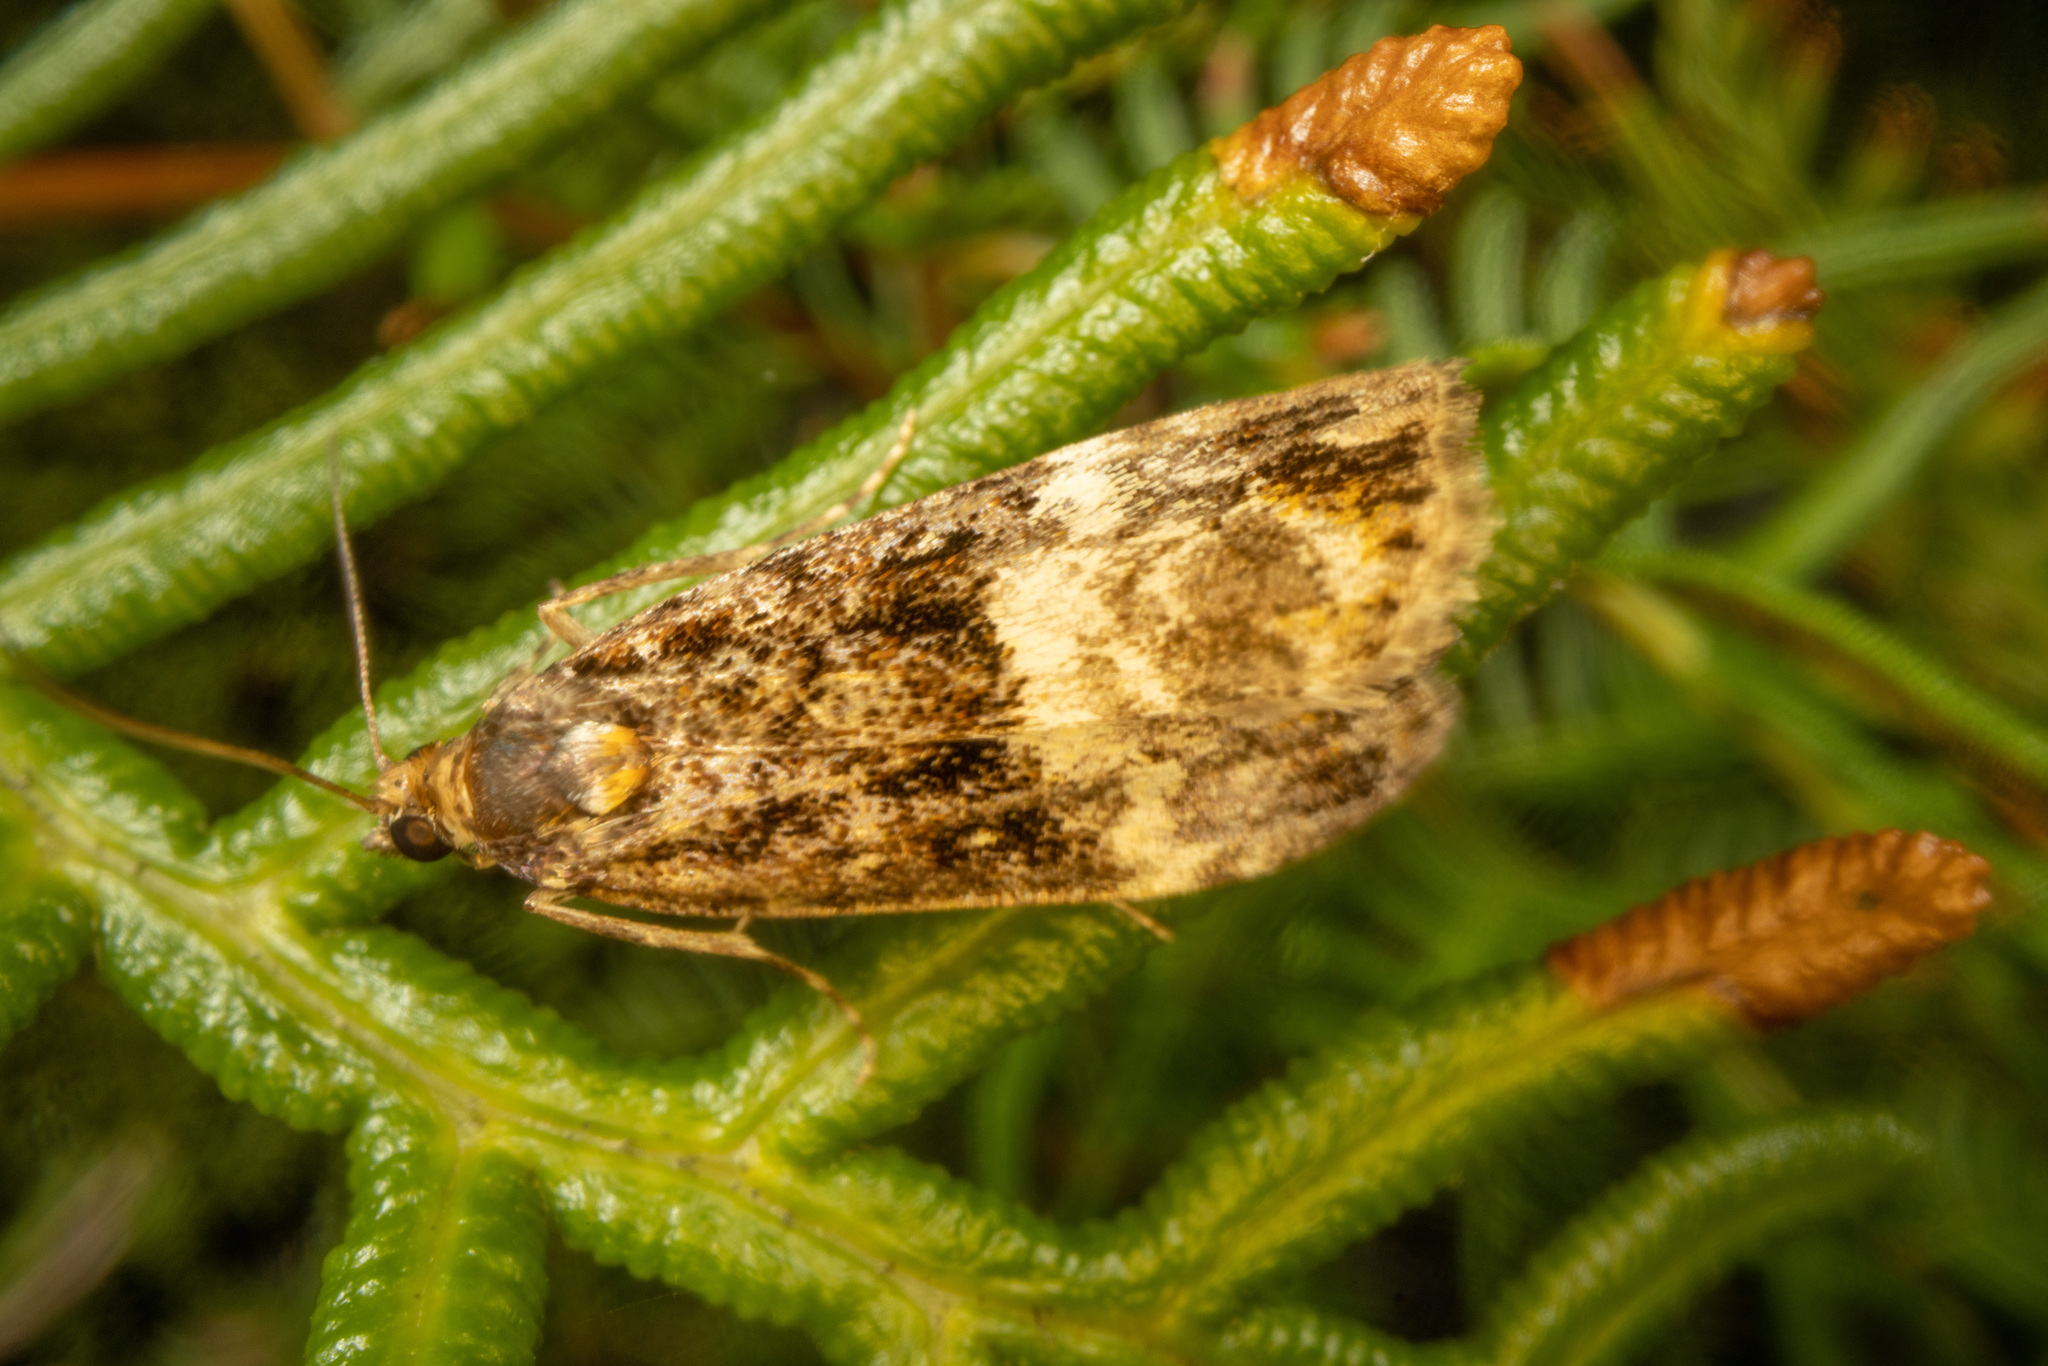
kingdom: Animalia
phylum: Arthropoda
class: Insecta
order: Lepidoptera
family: Crambidae
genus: Scoparia
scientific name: Scoparia minusculalis
